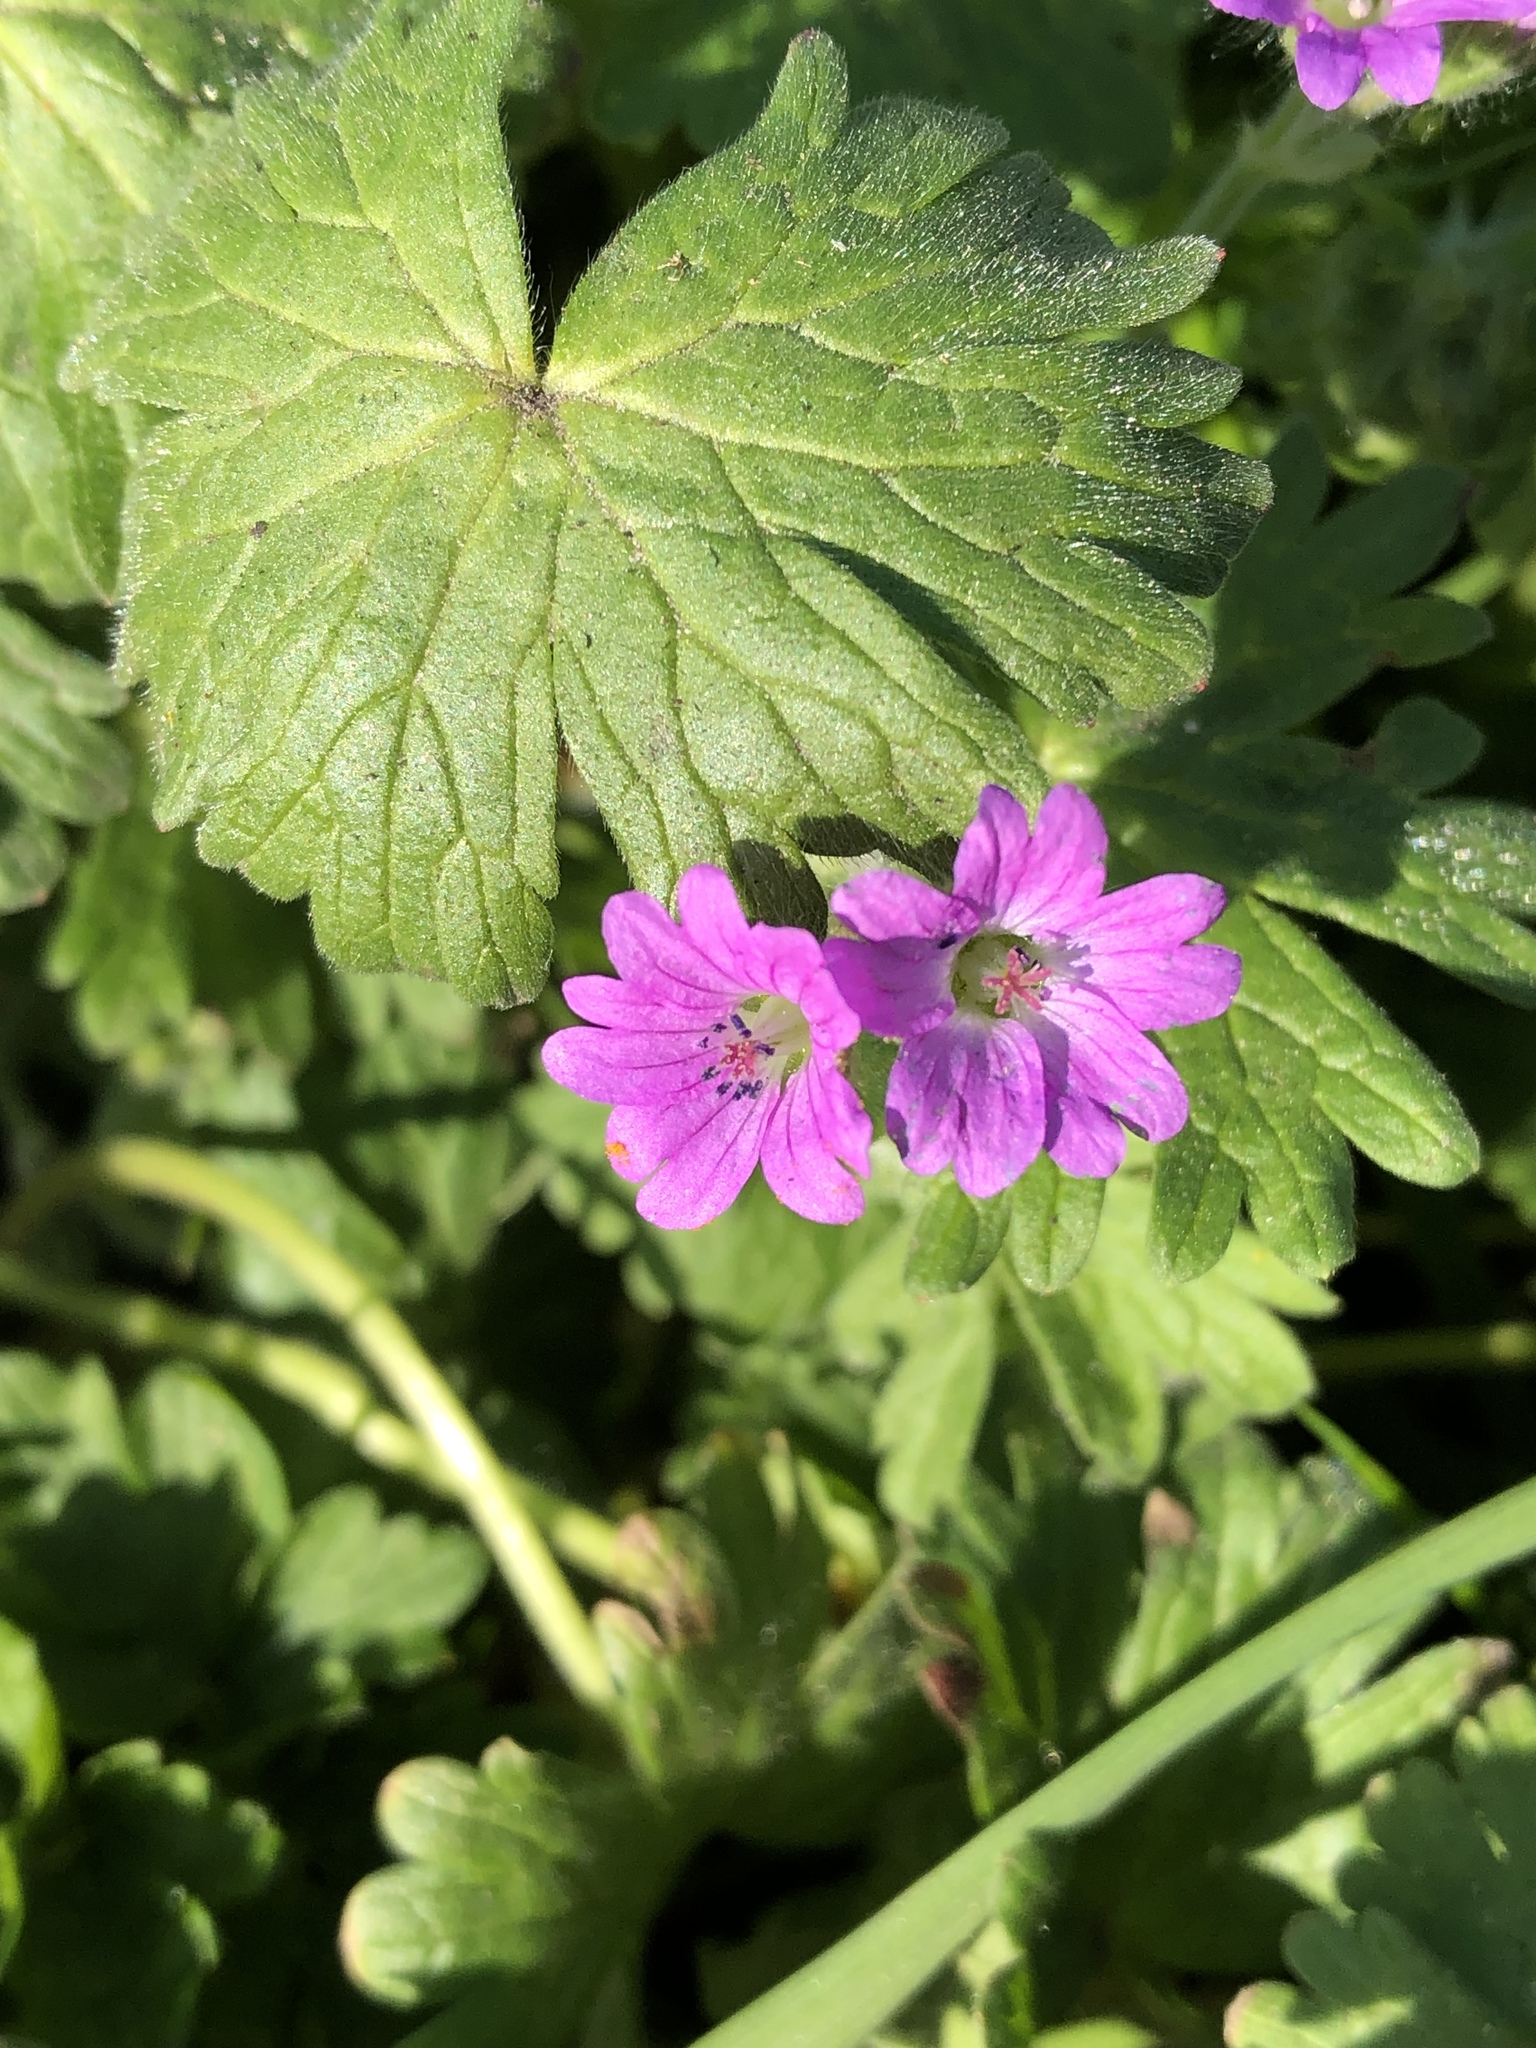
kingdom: Plantae
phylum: Tracheophyta
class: Magnoliopsida
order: Geraniales
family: Geraniaceae
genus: Geranium
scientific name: Geranium molle
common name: Dove's-foot crane's-bill
